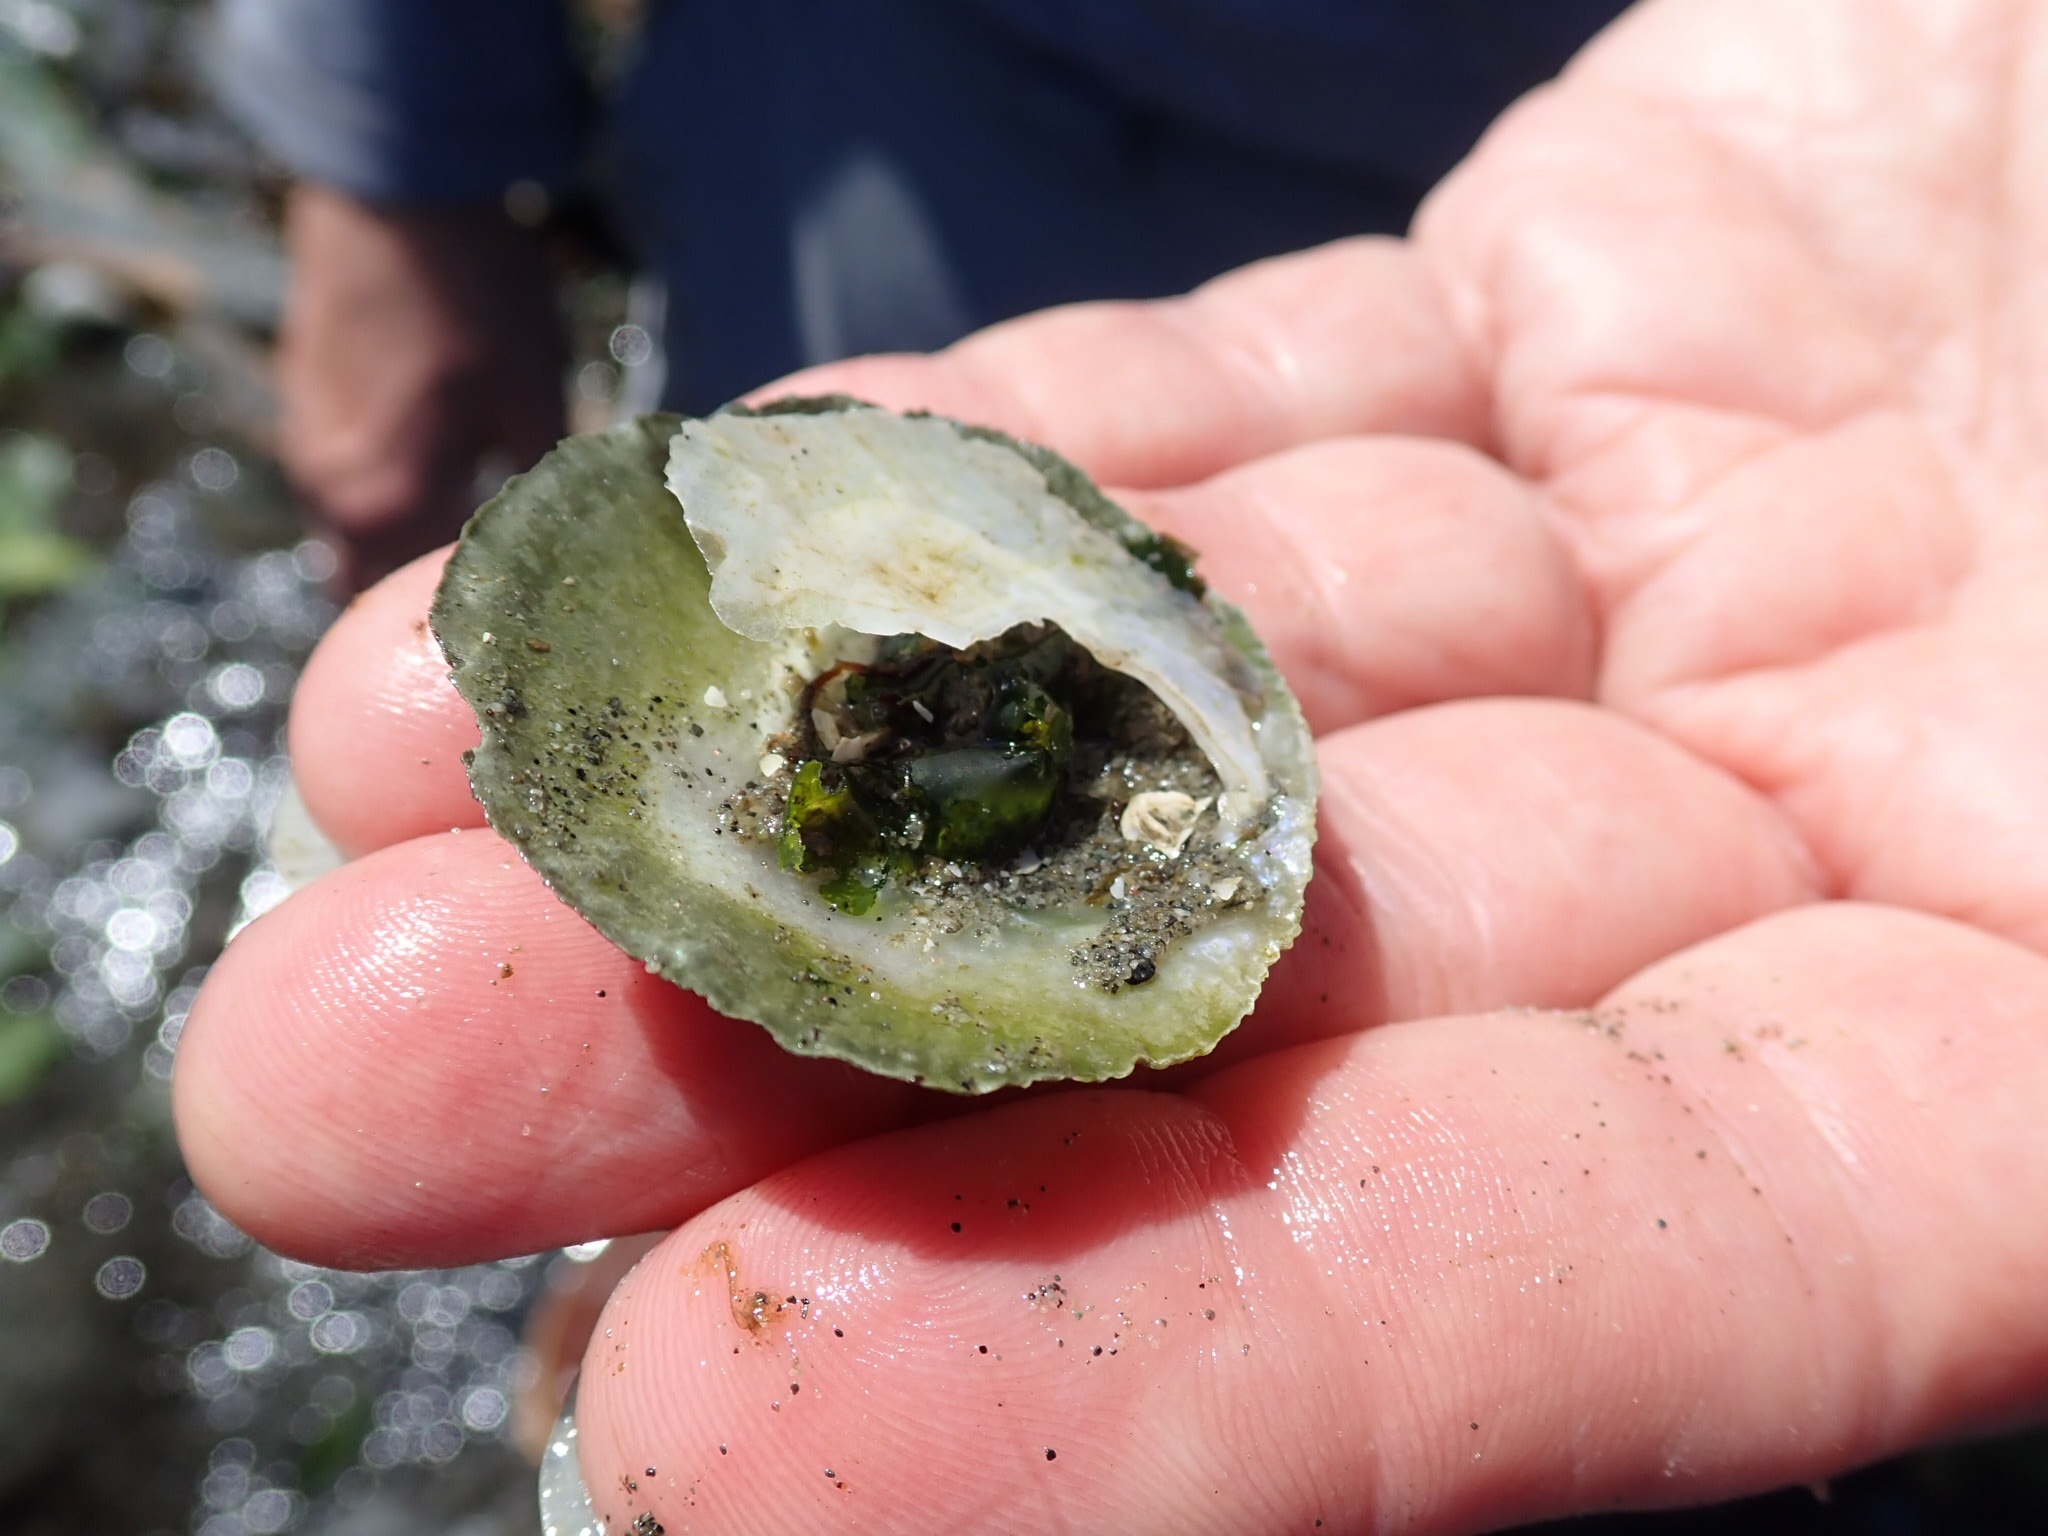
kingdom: Animalia
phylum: Mollusca
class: Bivalvia
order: Pectinida
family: Anomiidae
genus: Pododesmus
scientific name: Pododesmus macrochisma
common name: Alaska jingle
